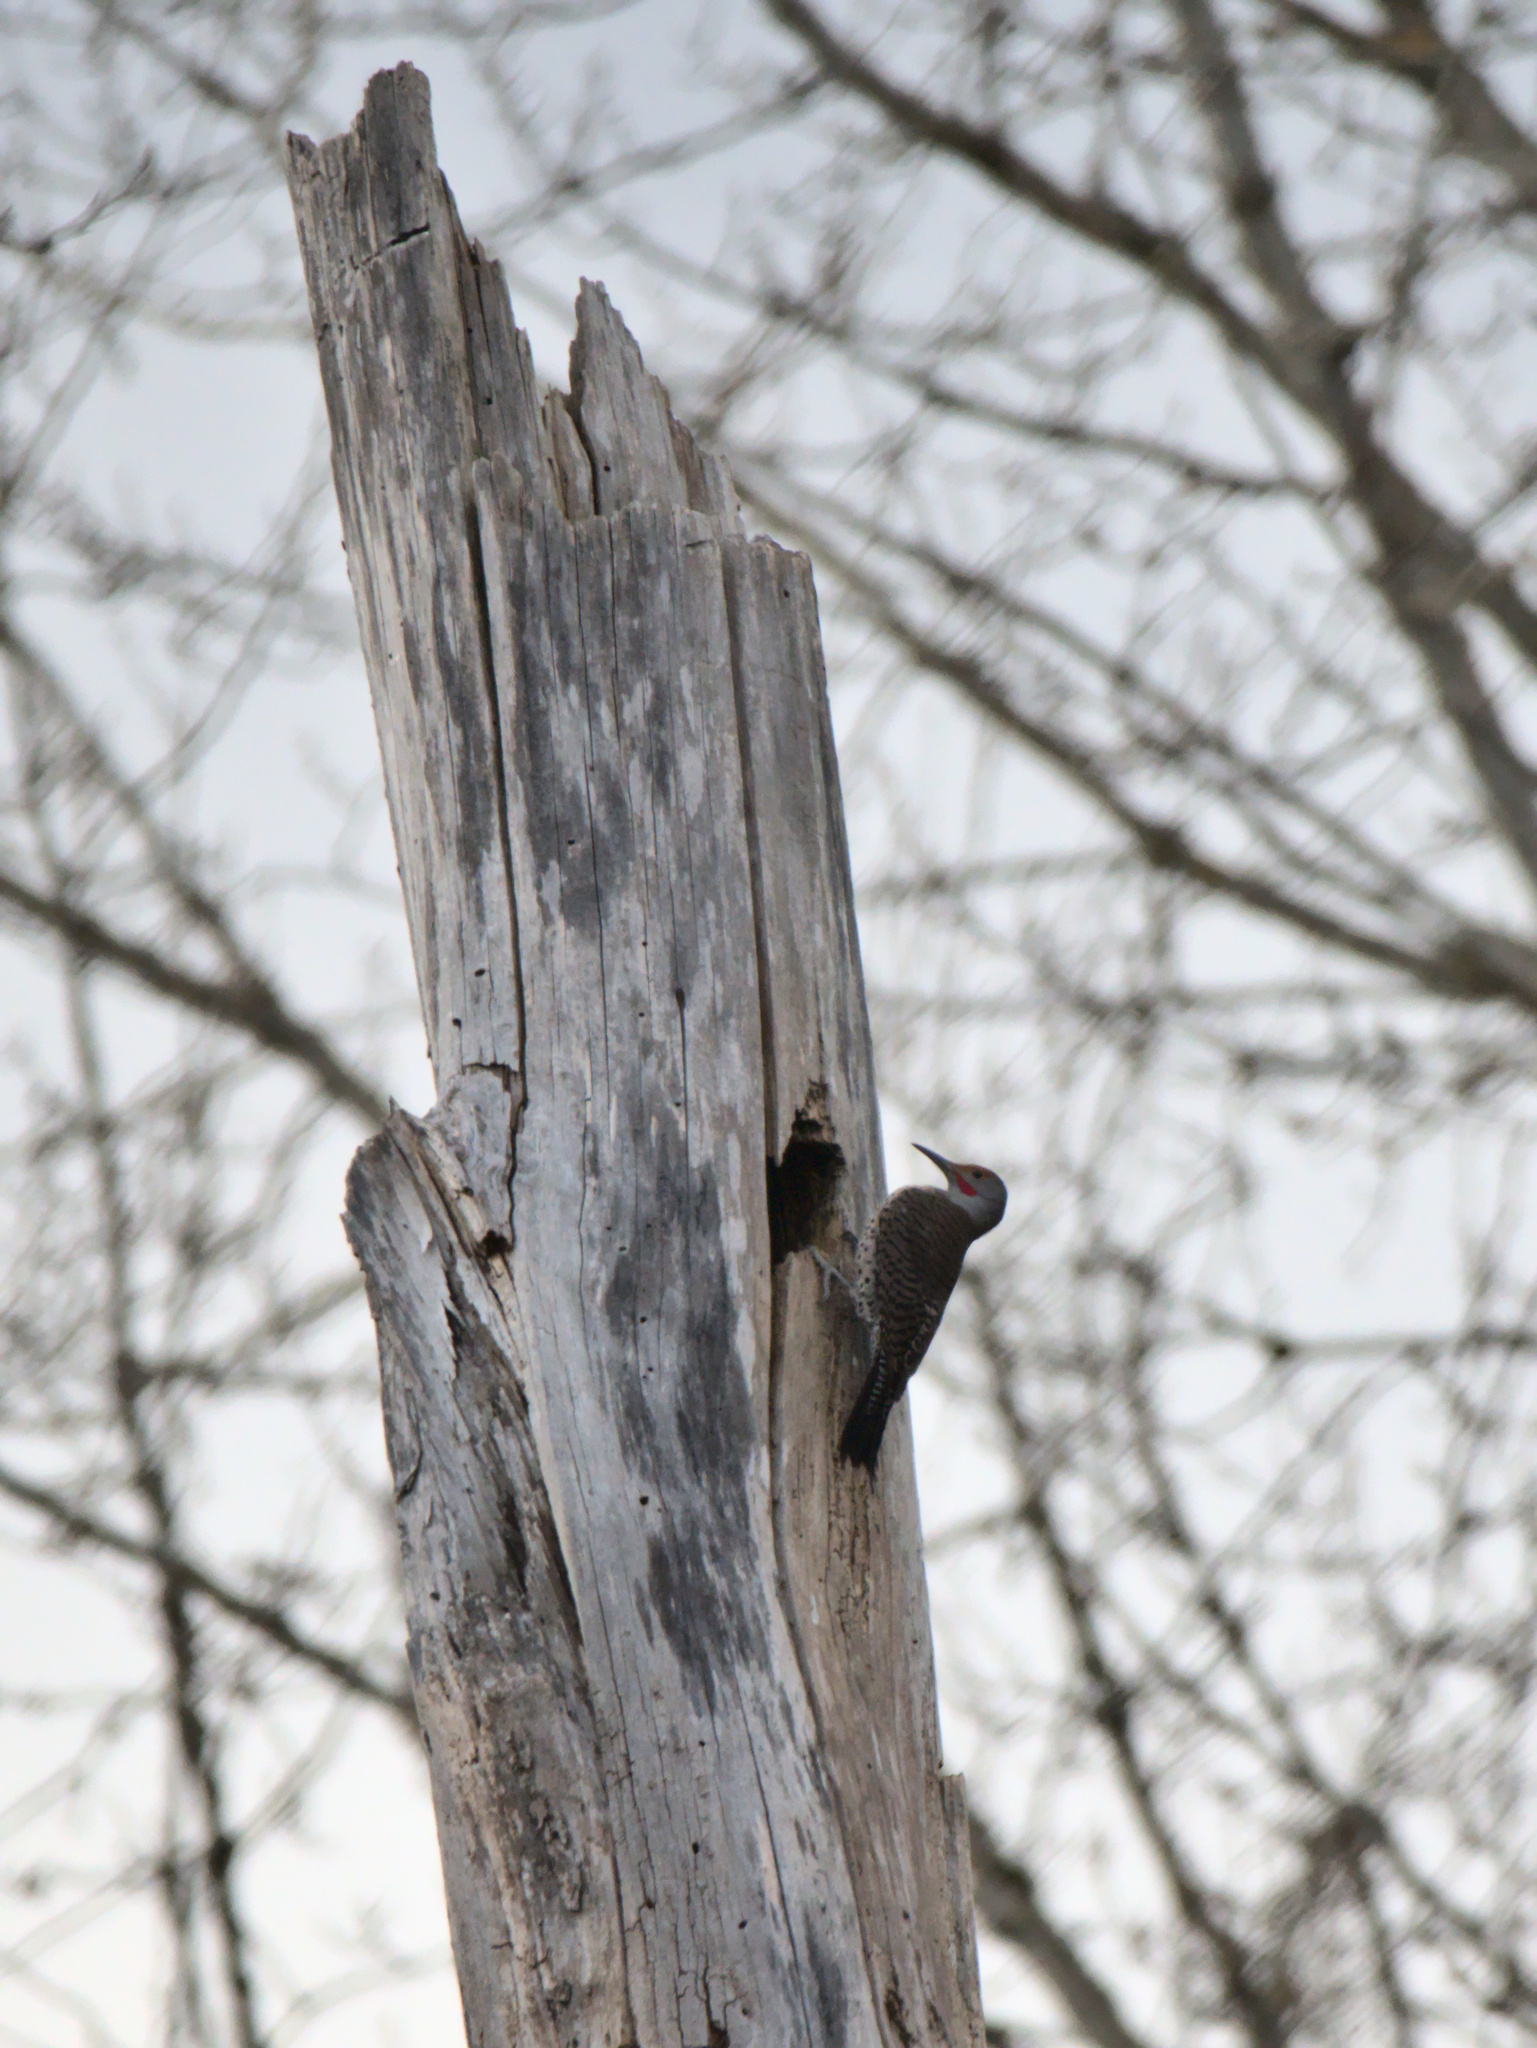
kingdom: Animalia
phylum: Chordata
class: Aves
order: Piciformes
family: Picidae
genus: Colaptes
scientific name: Colaptes auratus
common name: Northern flicker
